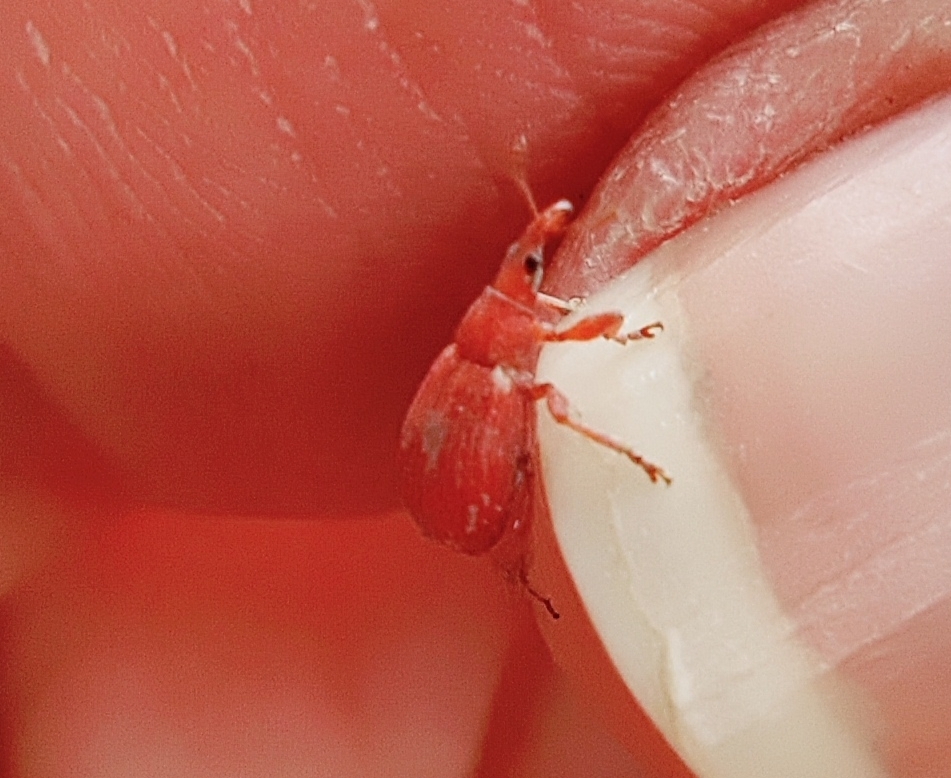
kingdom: Animalia
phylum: Arthropoda
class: Insecta
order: Coleoptera
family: Apionidae
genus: Apion
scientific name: Apion frumentarium
